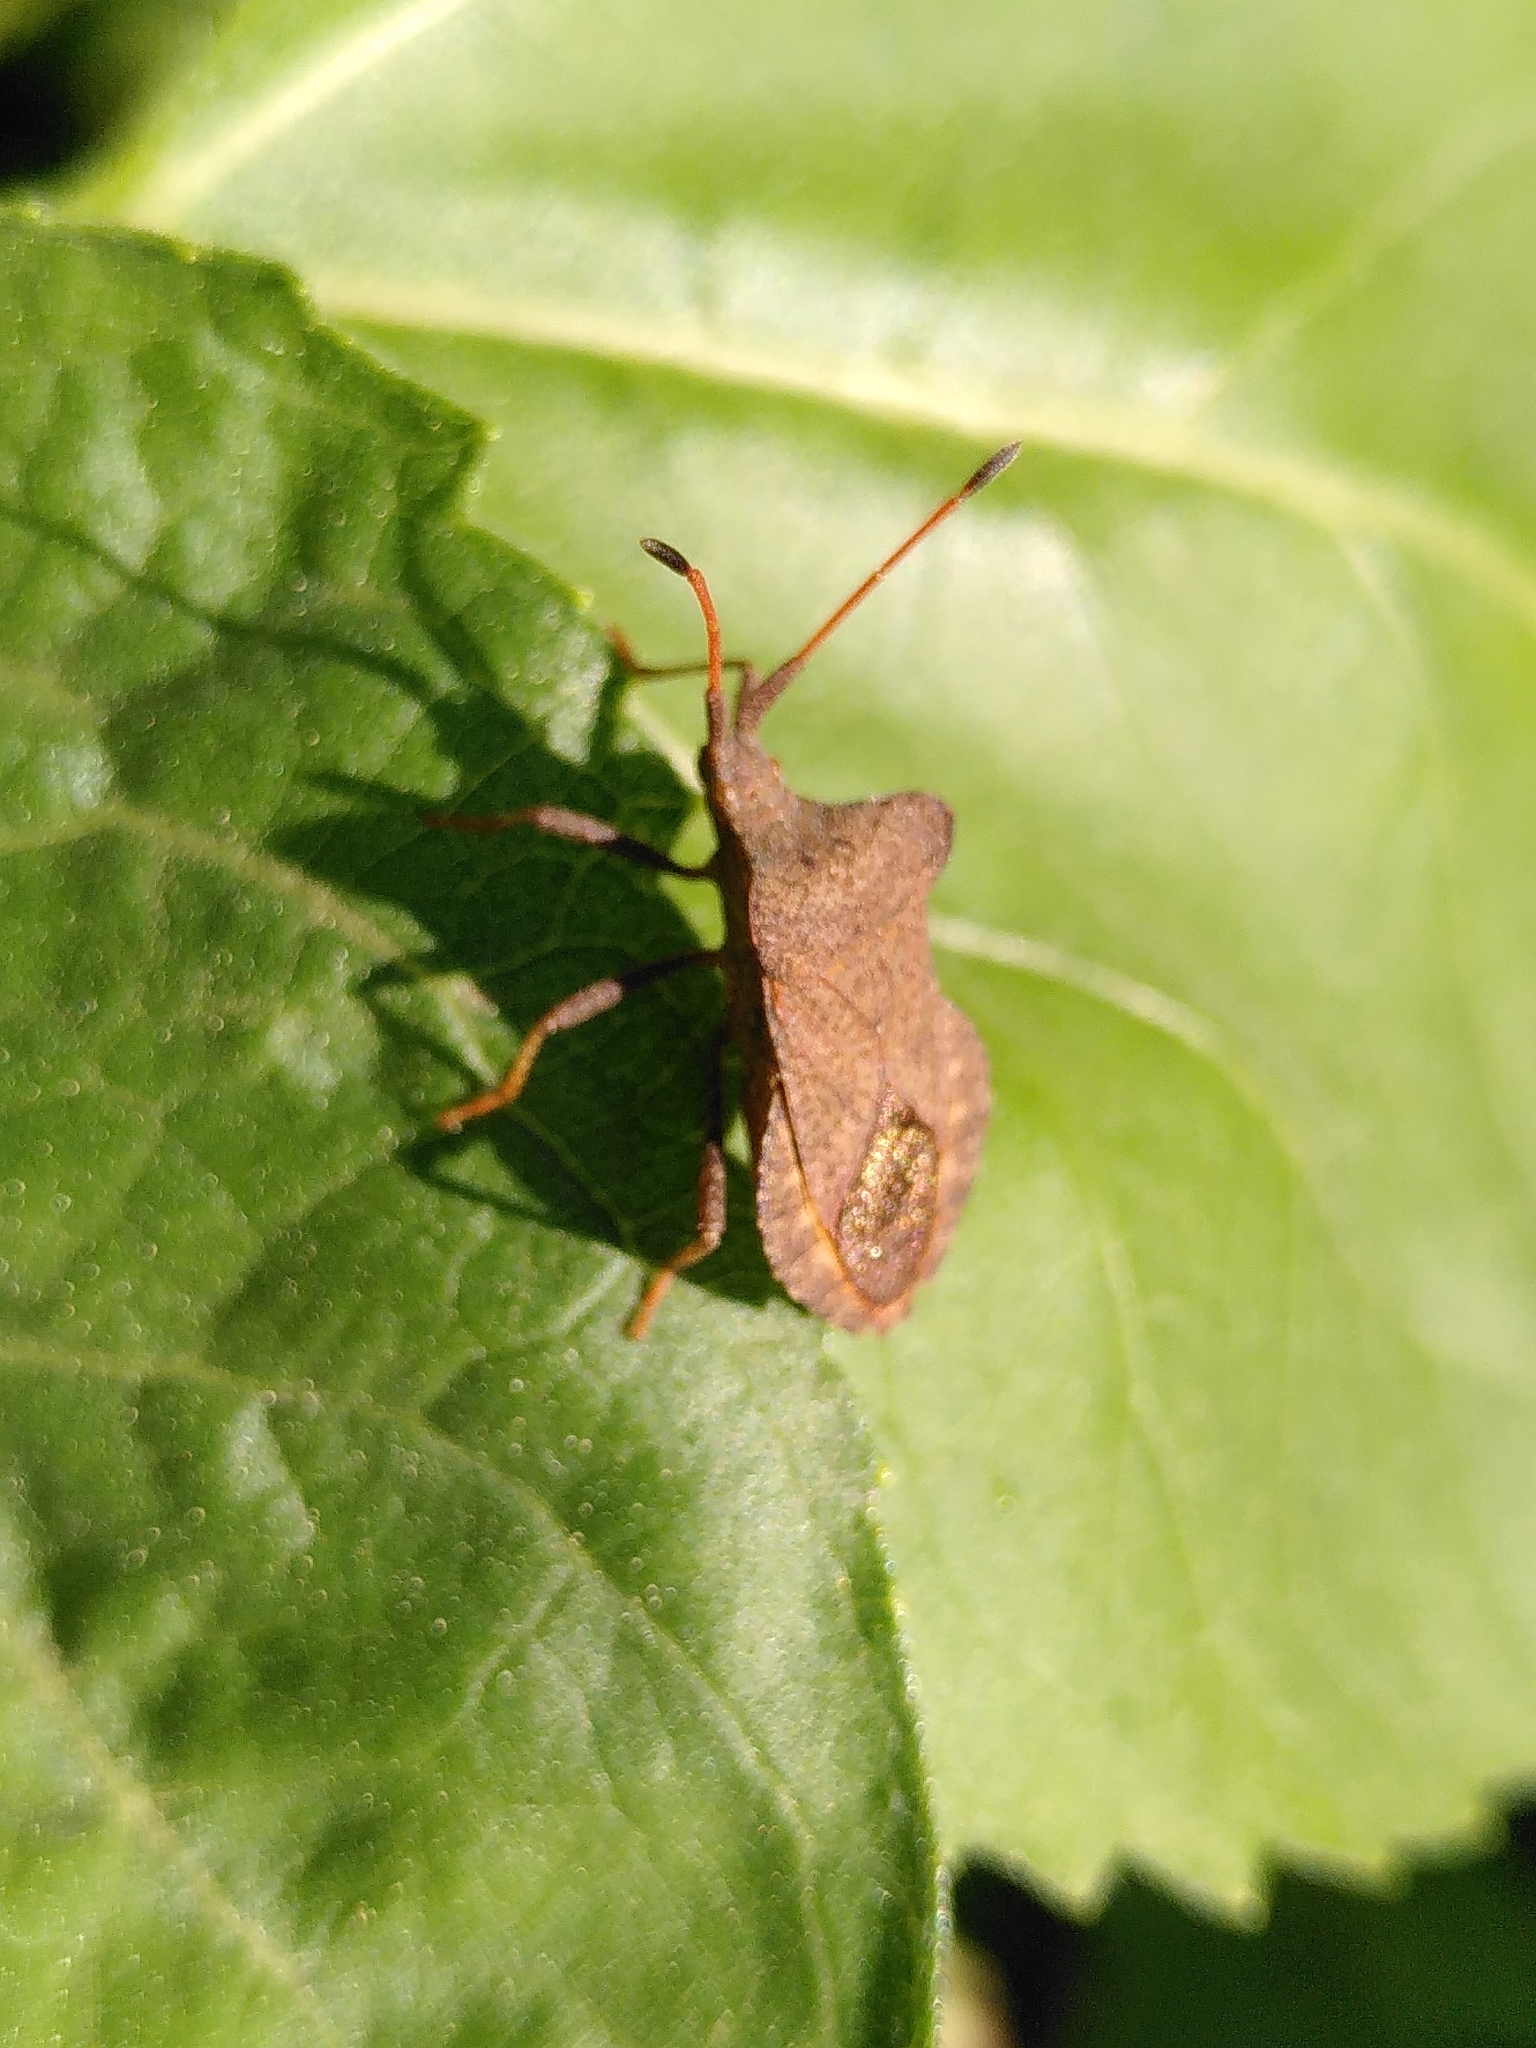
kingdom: Animalia
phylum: Arthropoda
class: Insecta
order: Hemiptera
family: Coreidae
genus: Coreus
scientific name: Coreus marginatus
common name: Dock bug
